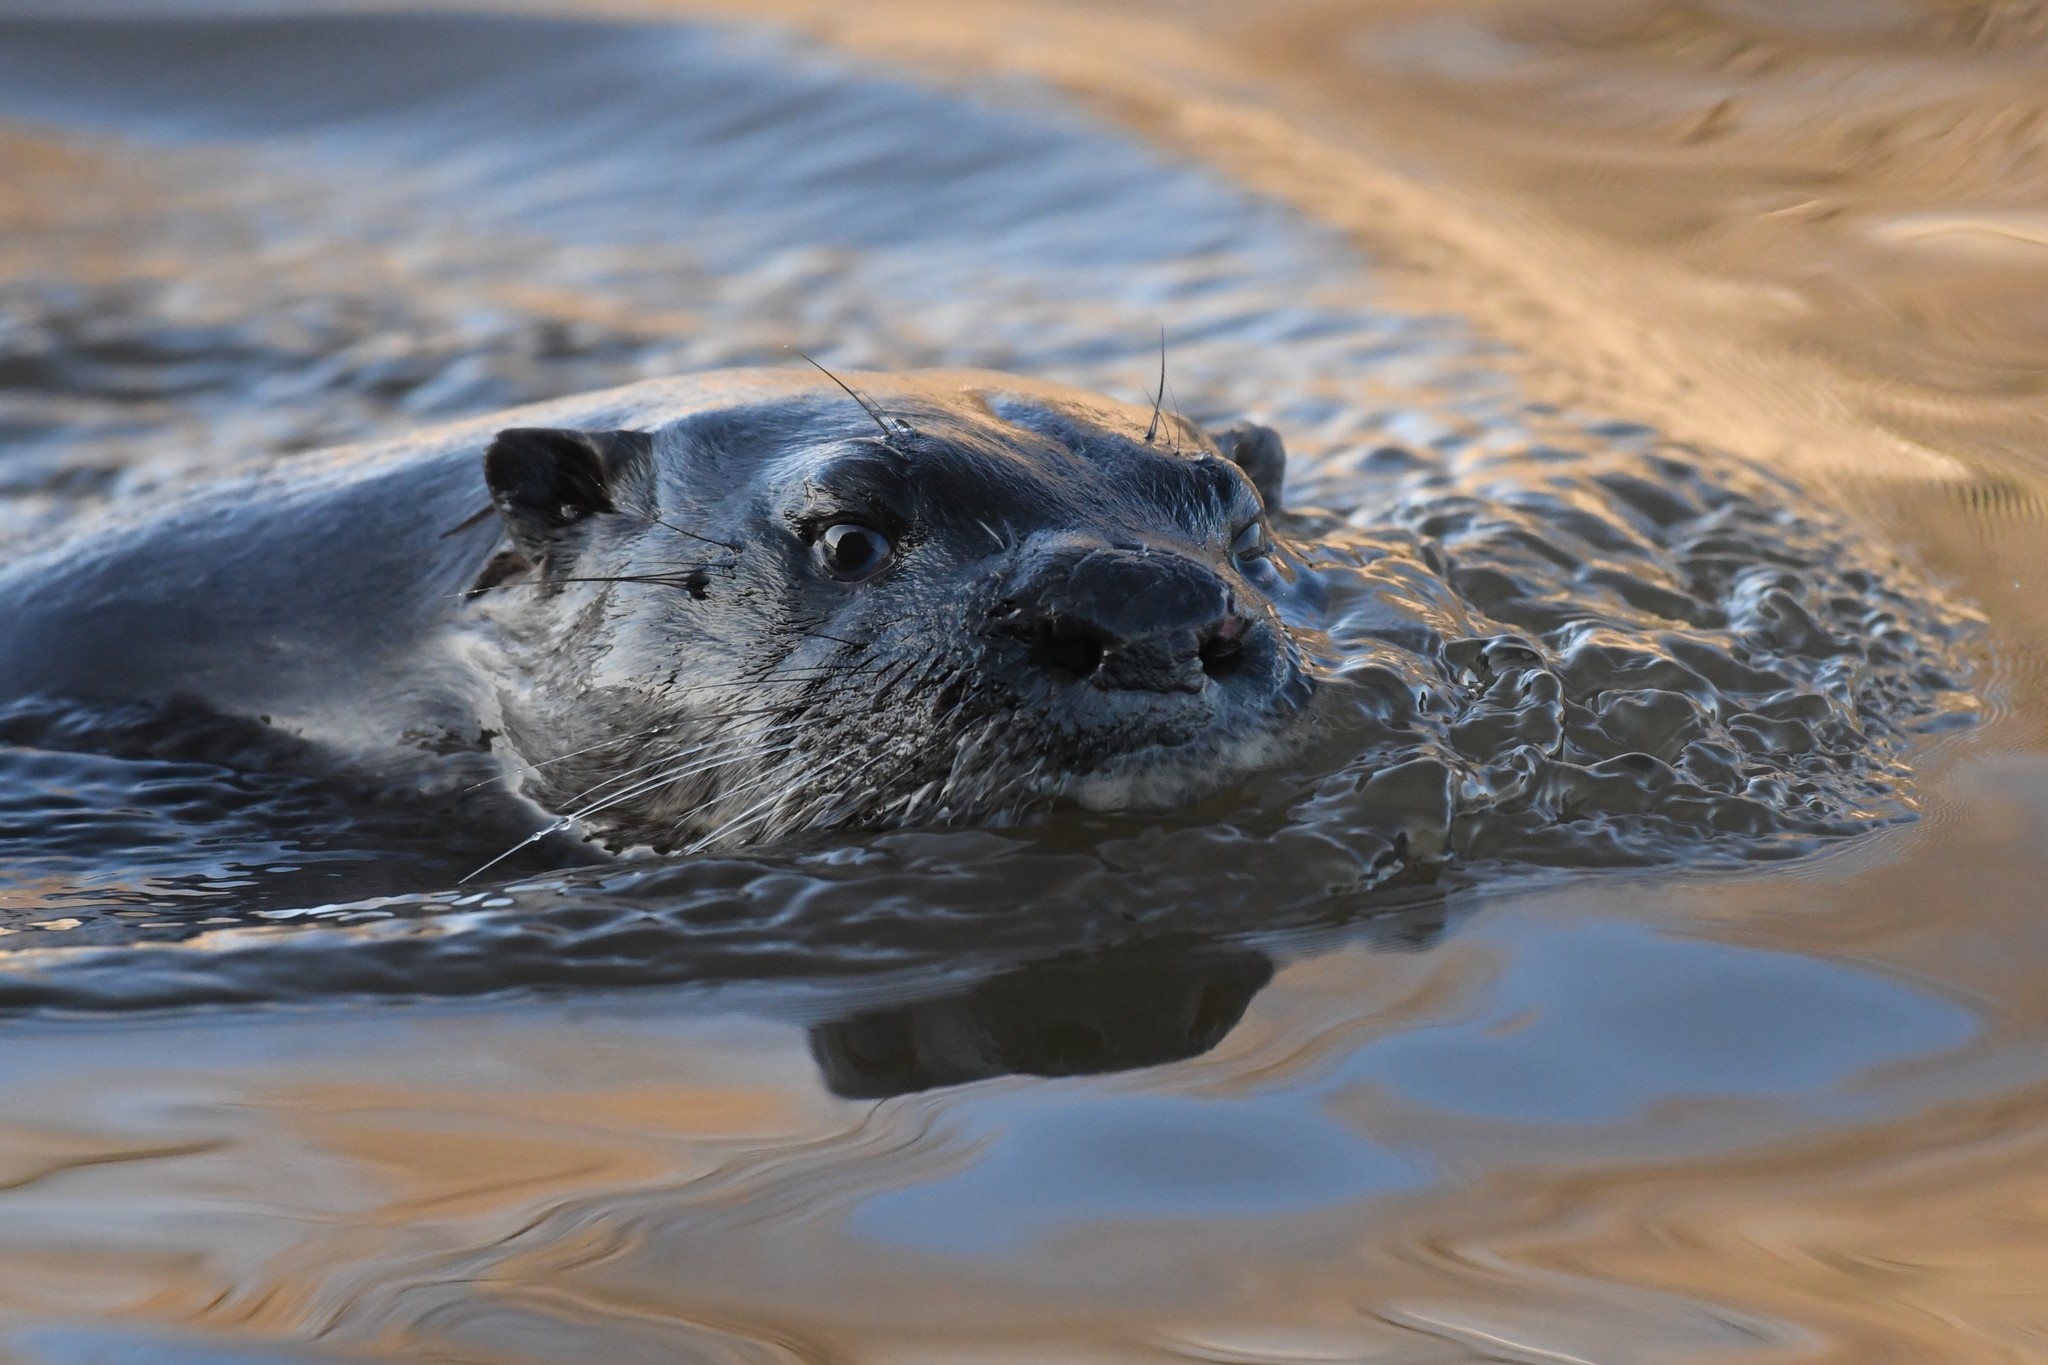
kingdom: Animalia
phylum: Chordata
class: Mammalia
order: Carnivora
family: Mustelidae
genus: Lontra
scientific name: Lontra canadensis
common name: North american river otter
